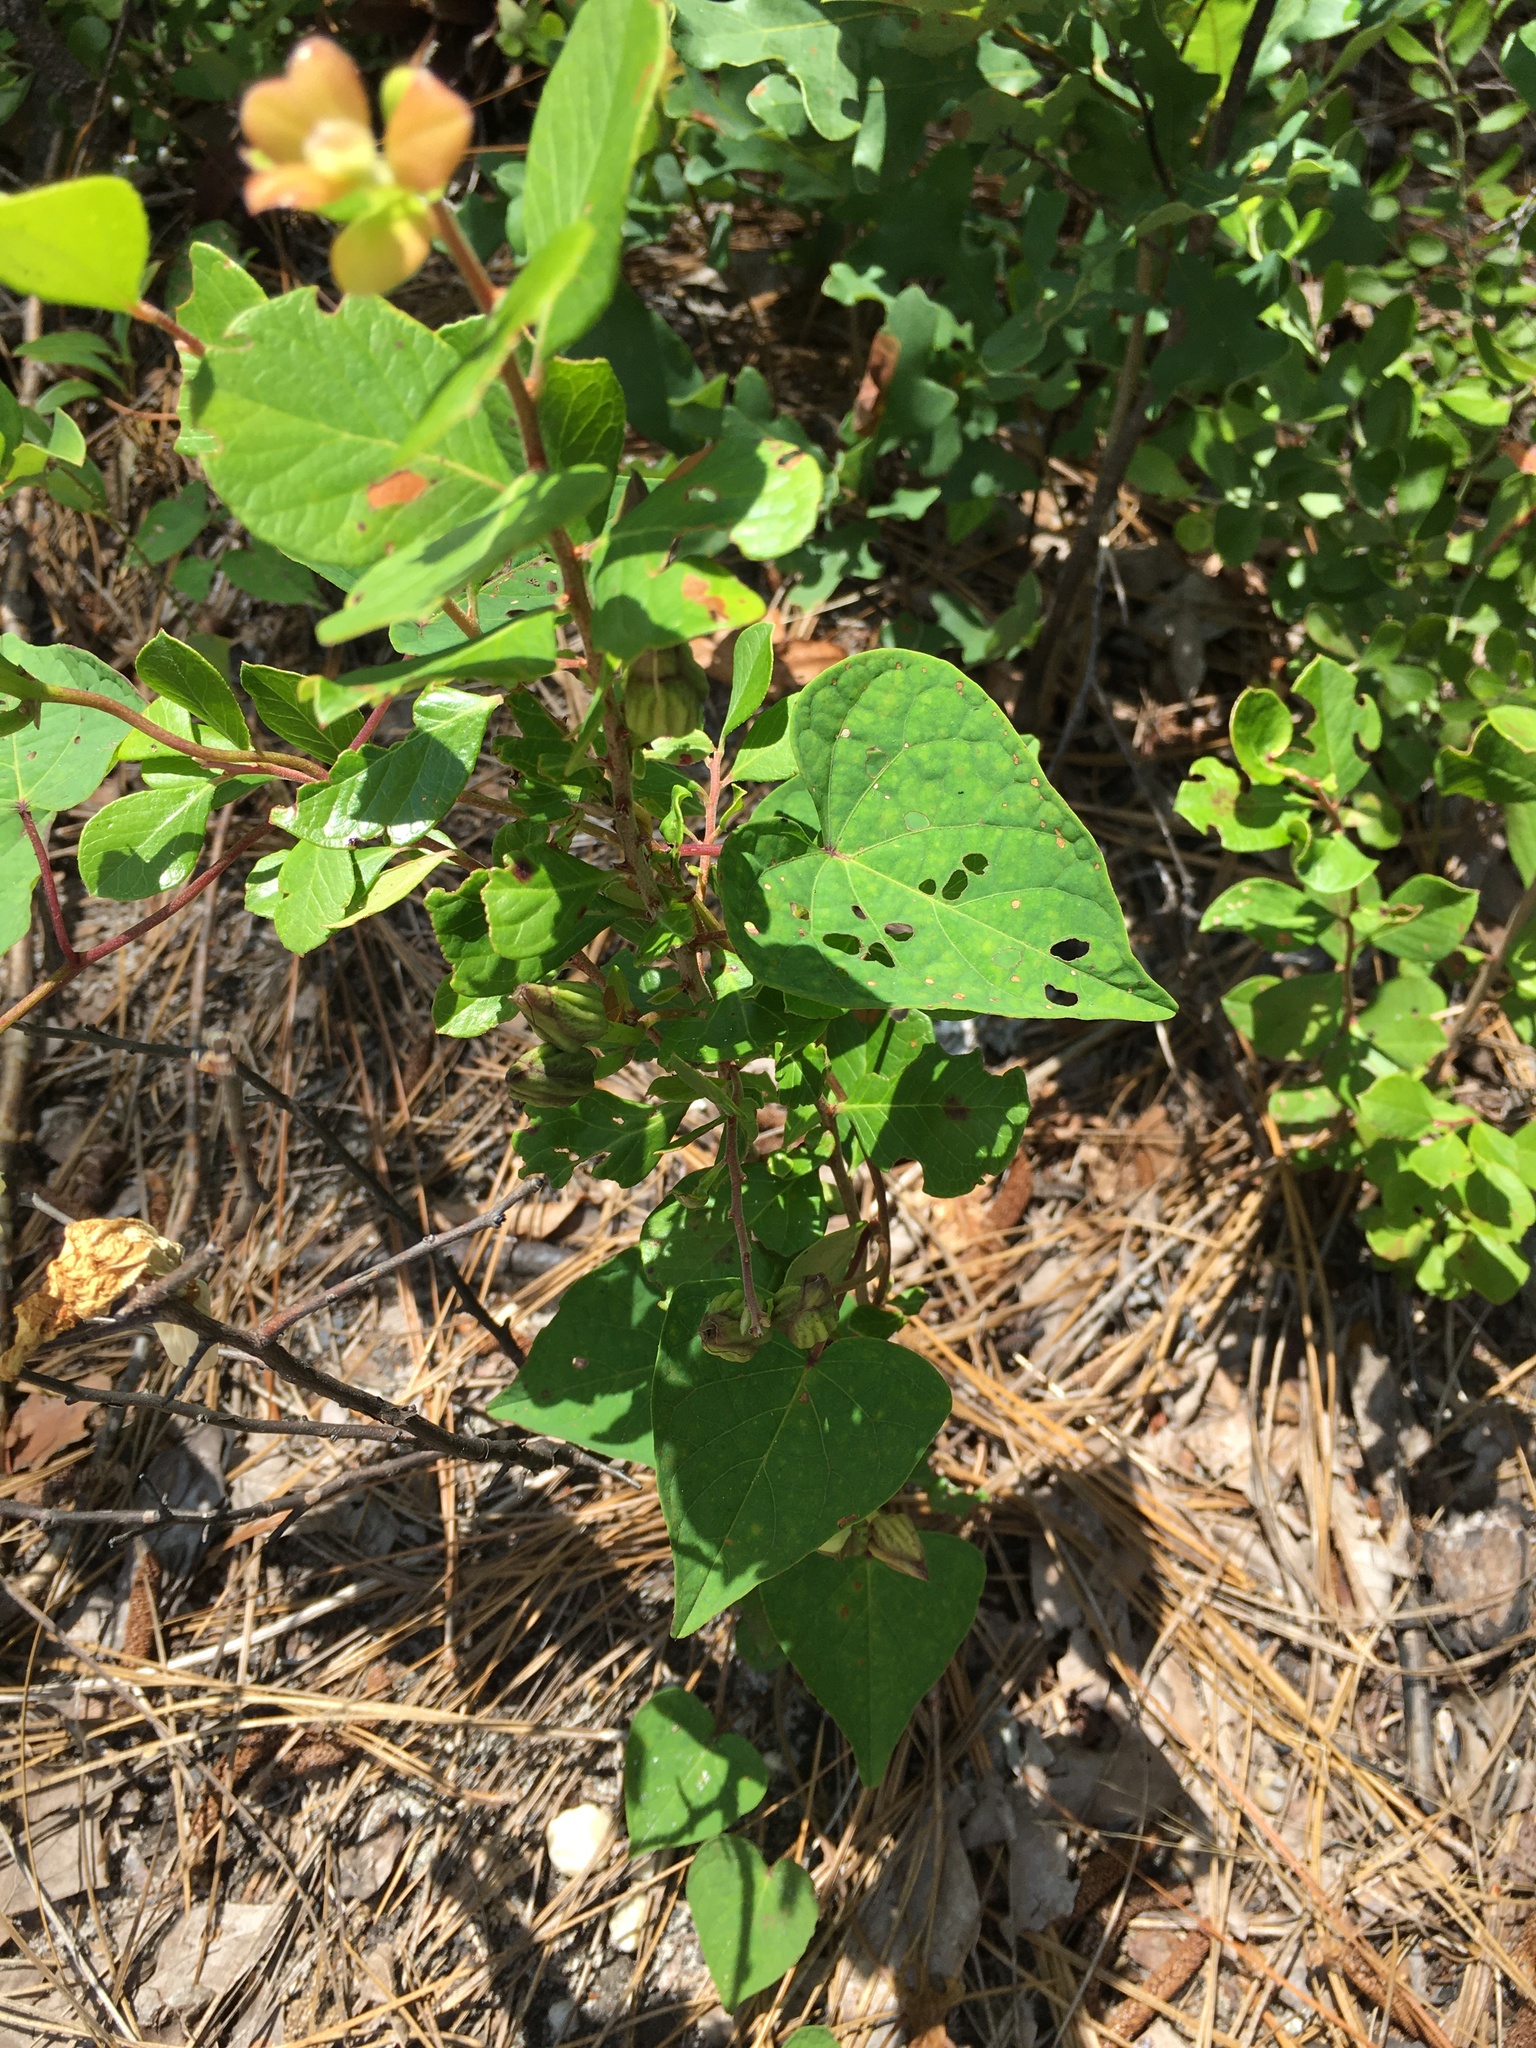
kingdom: Plantae
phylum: Tracheophyta
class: Magnoliopsida
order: Solanales
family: Convolvulaceae
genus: Ipomoea
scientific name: Ipomoea pandurata
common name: Man-of-the-earth
